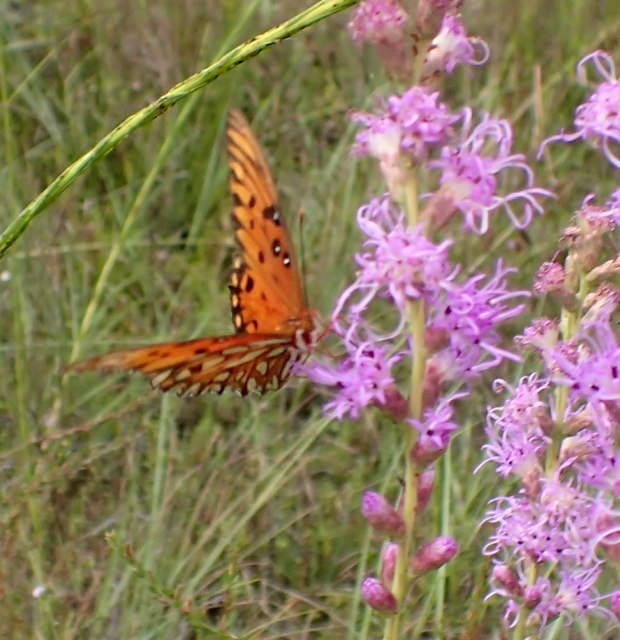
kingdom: Animalia
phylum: Arthropoda
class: Insecta
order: Lepidoptera
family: Nymphalidae
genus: Dione
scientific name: Dione vanillae
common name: Gulf fritillary
